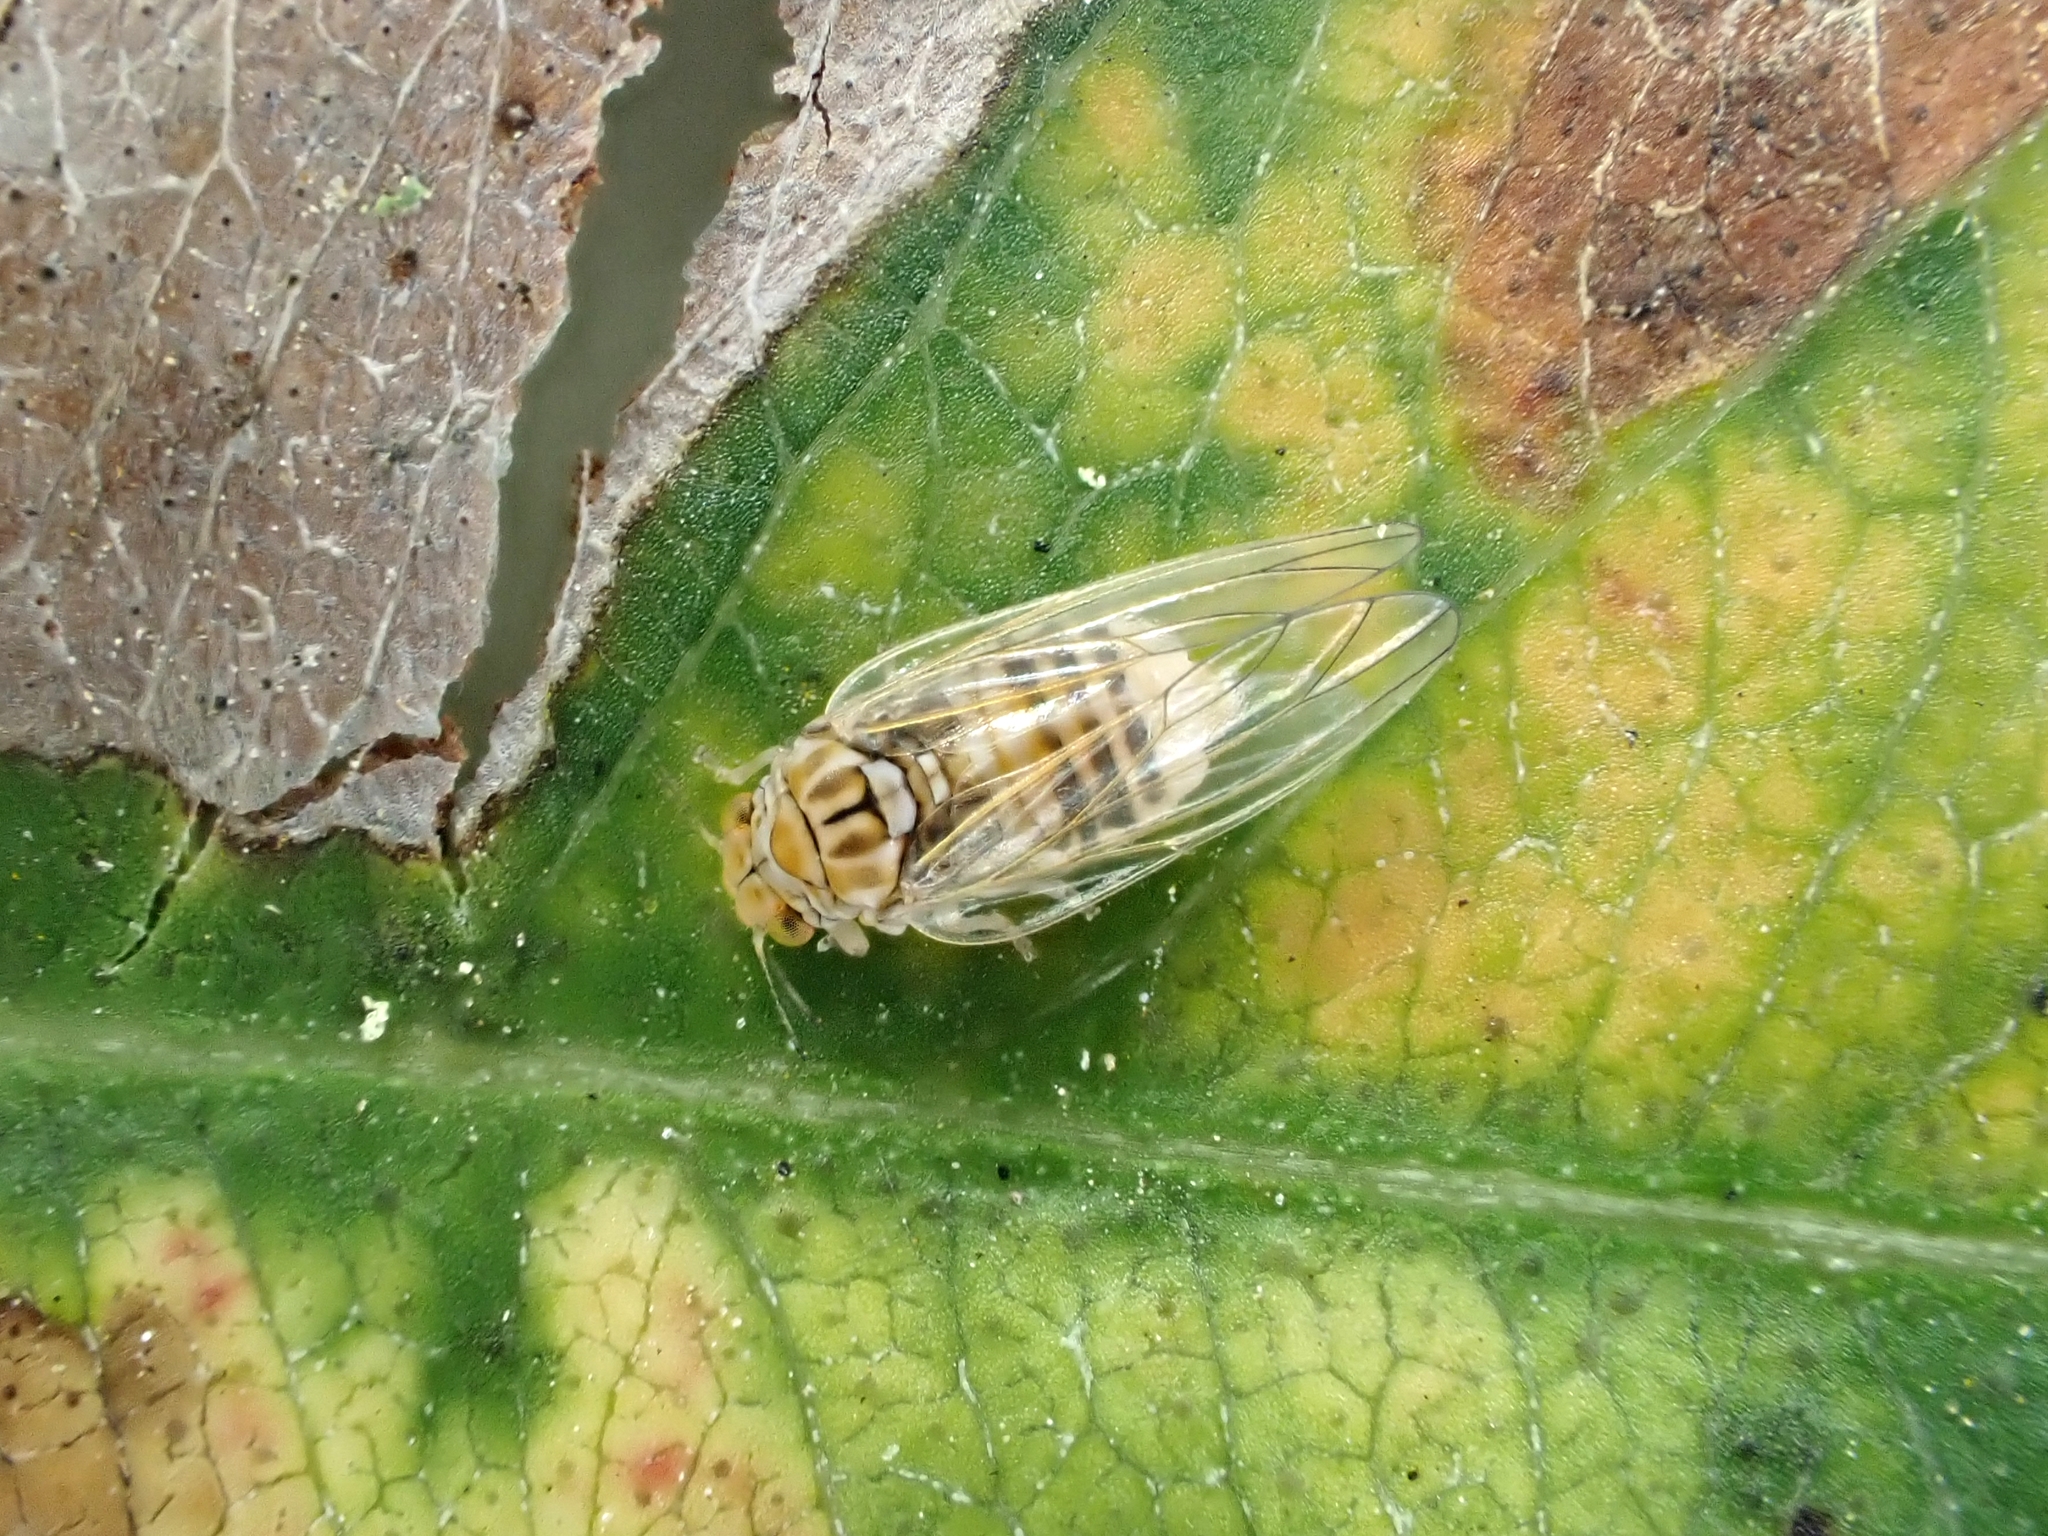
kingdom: Animalia
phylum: Arthropoda
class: Insecta
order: Hemiptera
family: Aphalaridae
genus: Cardiaspina
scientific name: Cardiaspina fiscella
